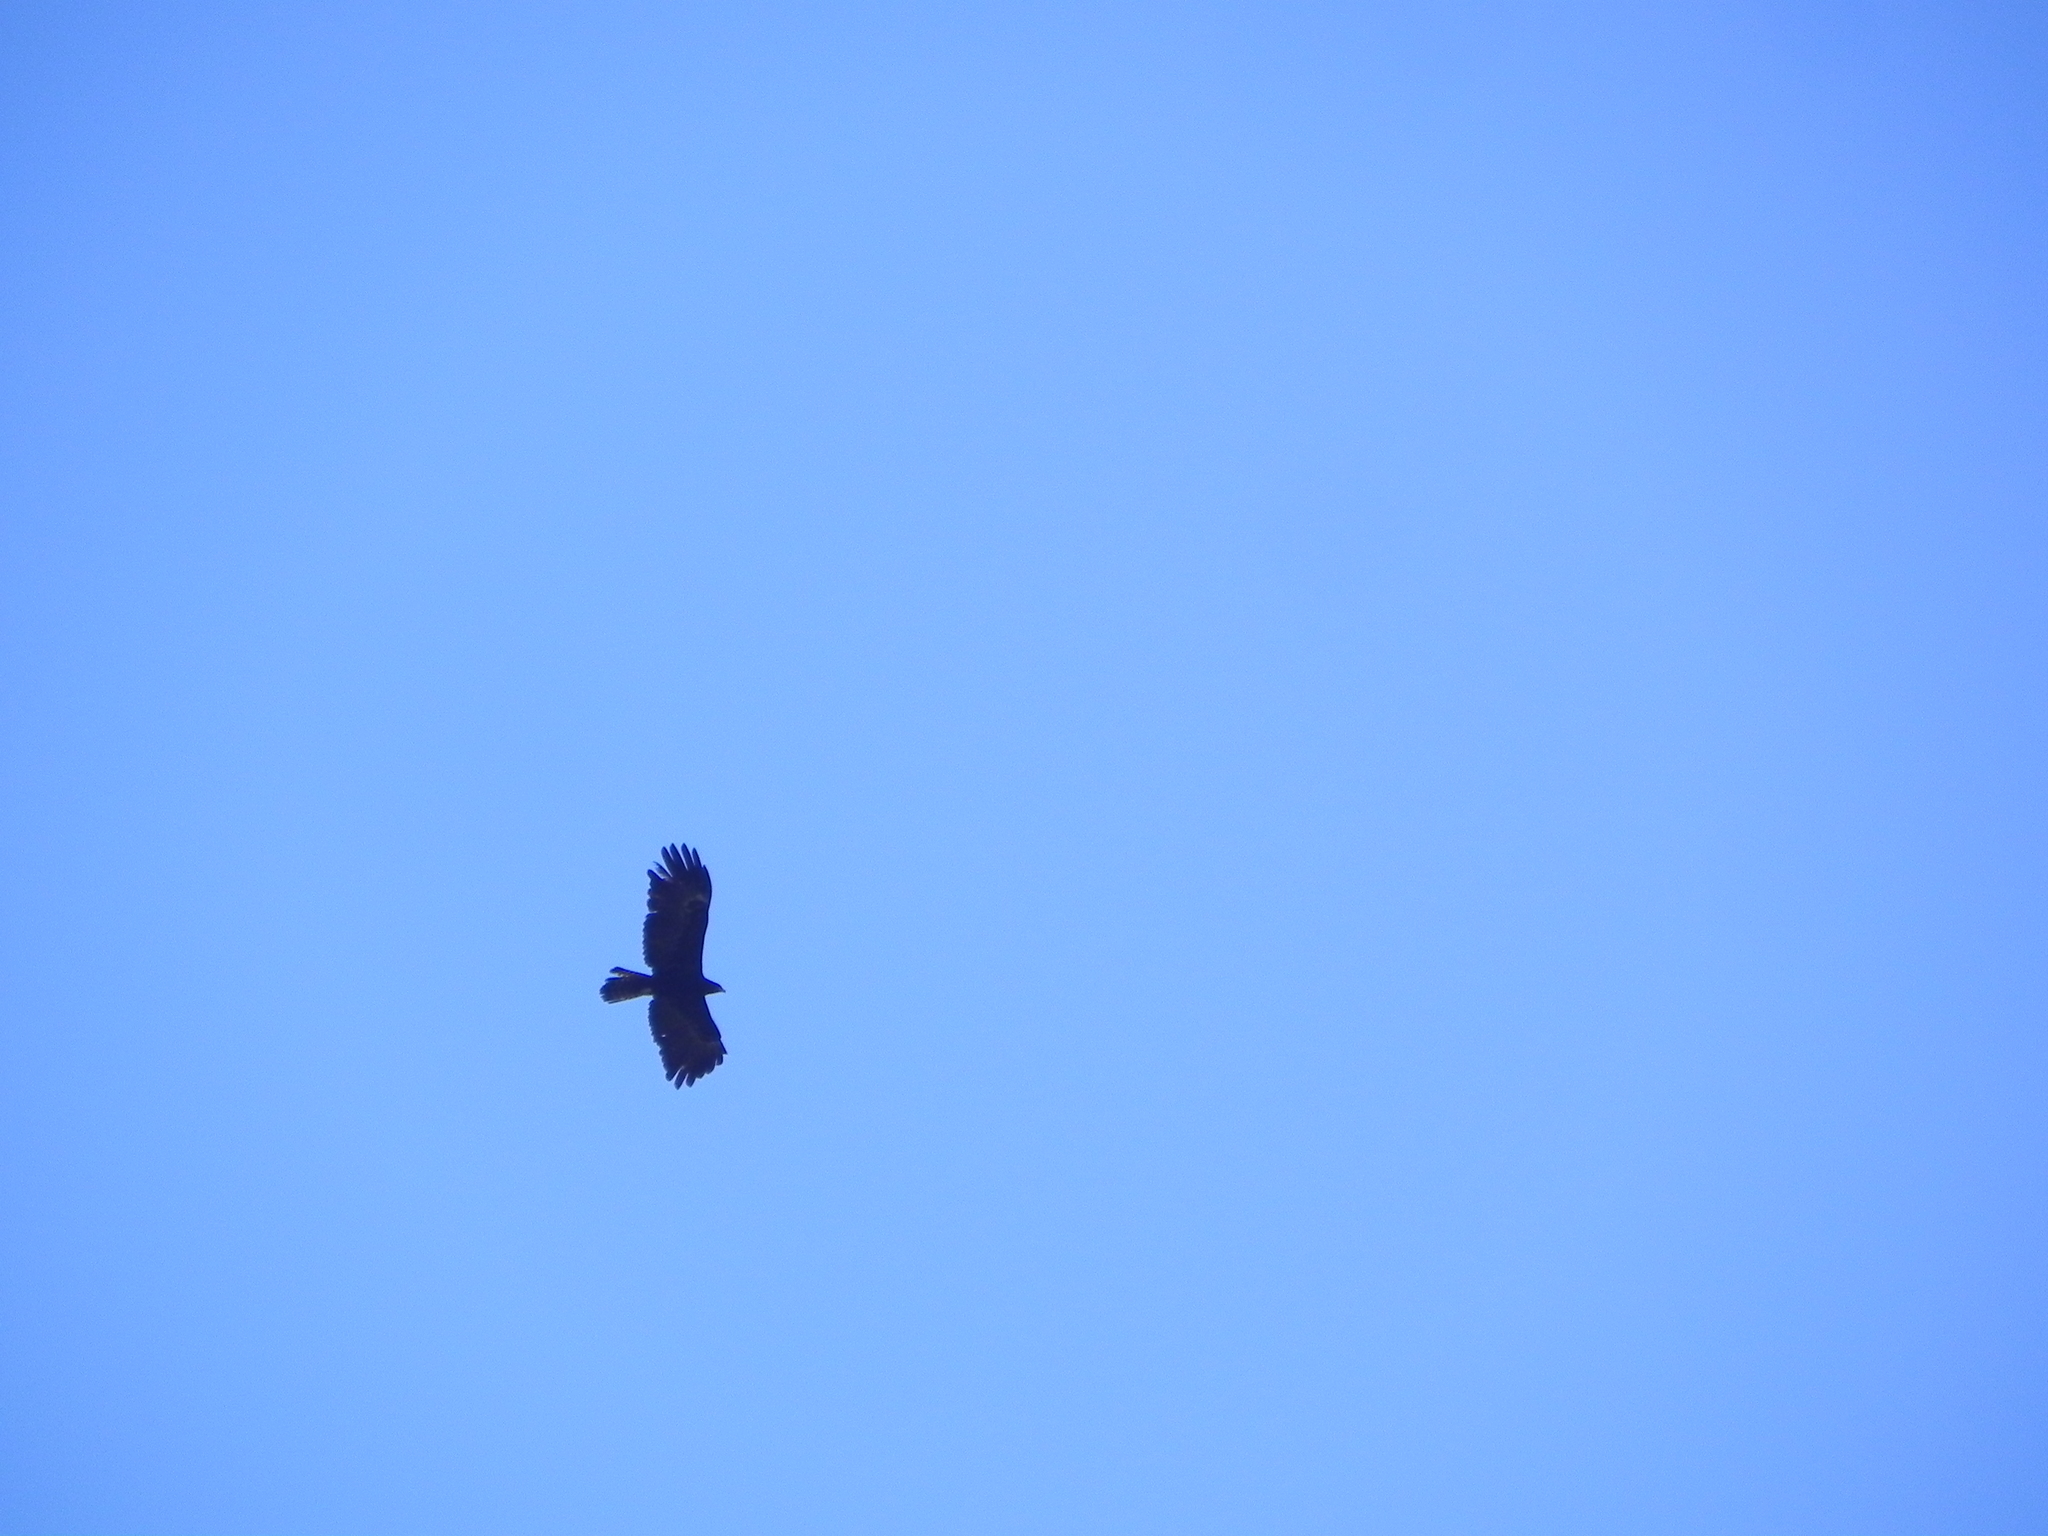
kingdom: Animalia
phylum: Chordata
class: Aves
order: Accipitriformes
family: Accipitridae
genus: Ictinaetus
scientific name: Ictinaetus malayensis
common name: Black eagle
